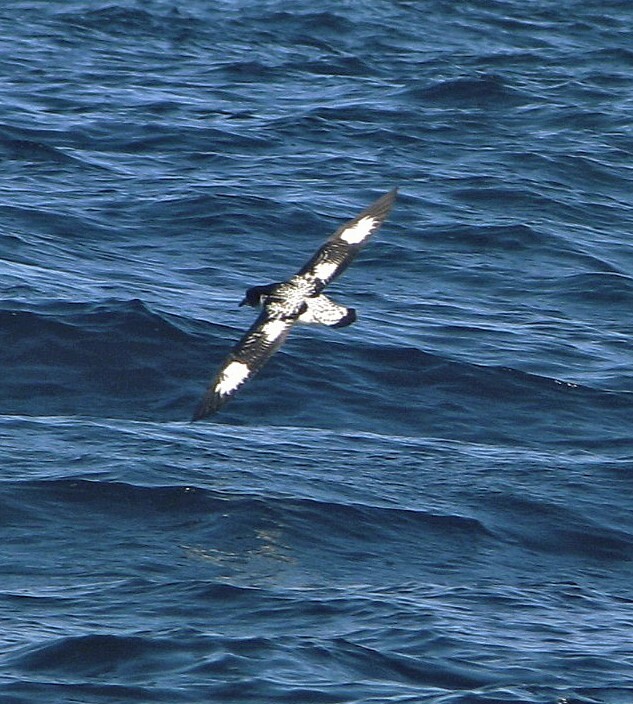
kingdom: Animalia
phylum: Chordata
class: Aves
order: Procellariiformes
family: Procellariidae
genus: Daption
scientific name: Daption capense
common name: Cape petrel
